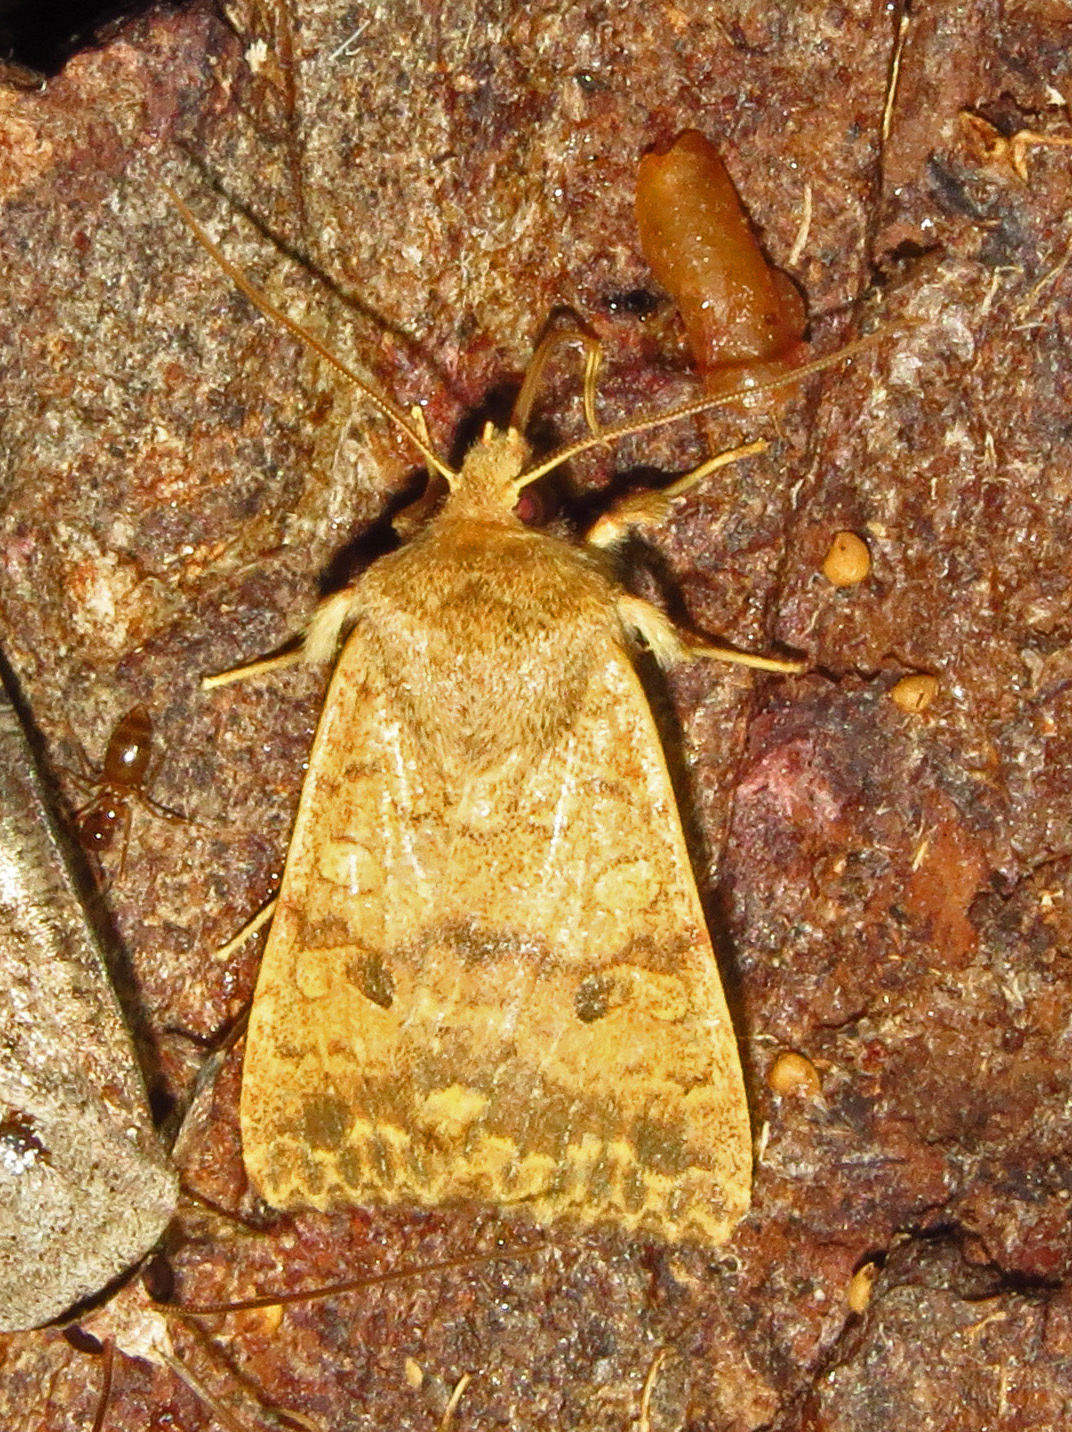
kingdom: Animalia
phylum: Arthropoda
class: Insecta
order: Lepidoptera
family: Noctuidae
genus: Agrochola
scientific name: Agrochola bicolorago
